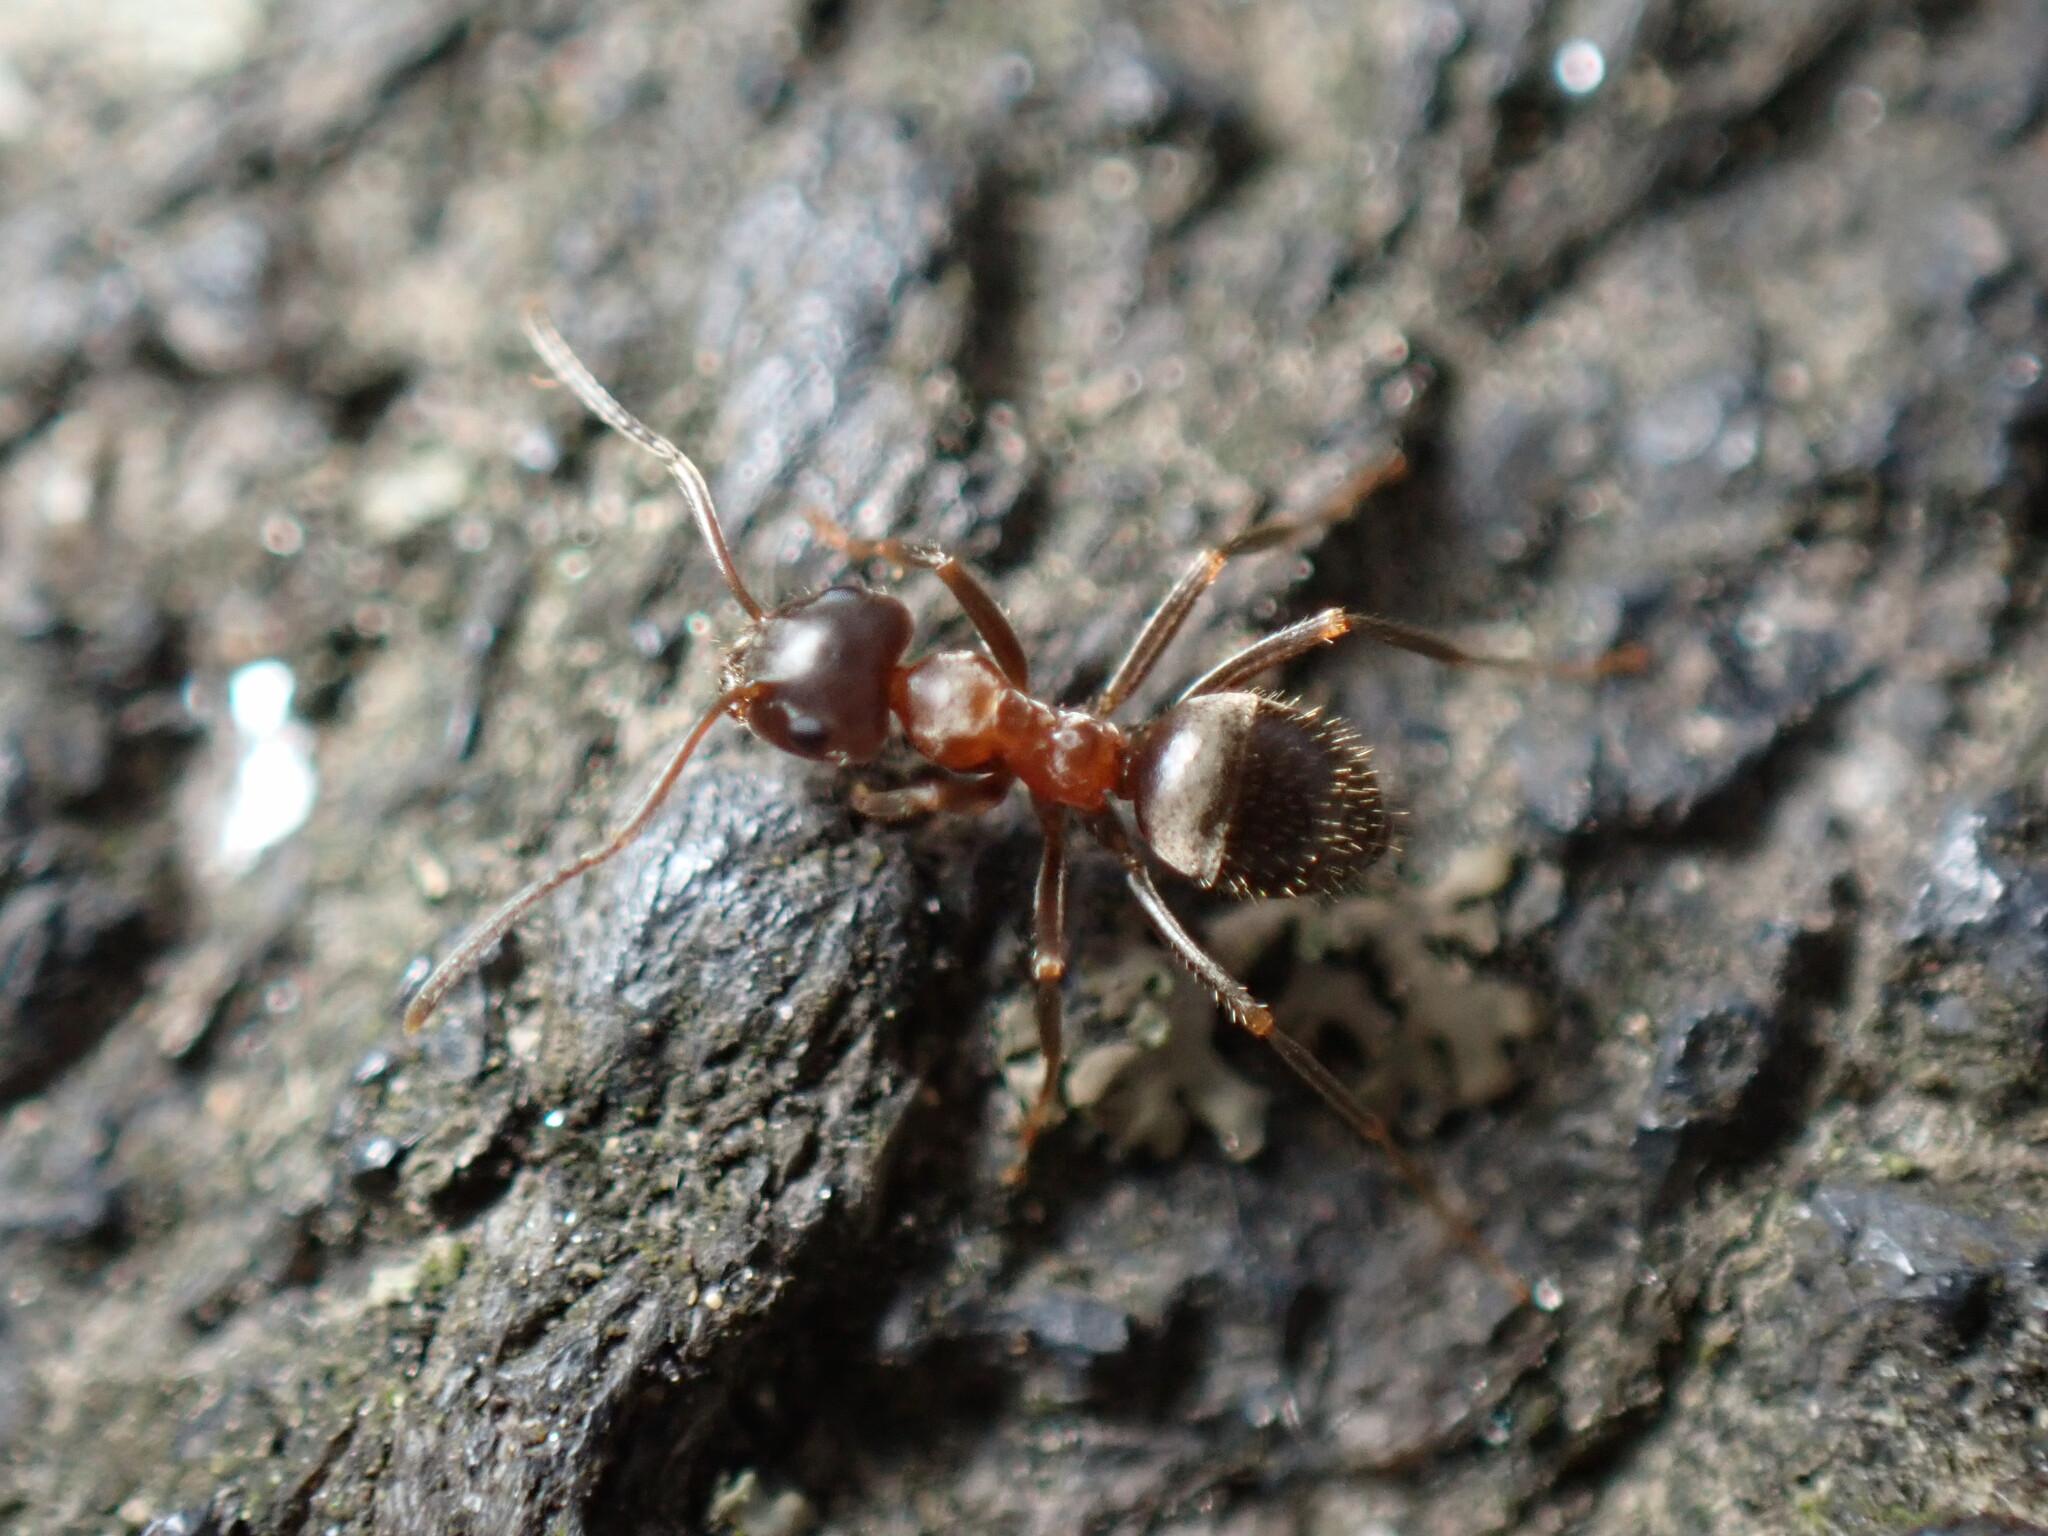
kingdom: Animalia
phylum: Arthropoda
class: Insecta
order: Hymenoptera
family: Formicidae
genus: Lasius
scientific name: Lasius emarginatus
